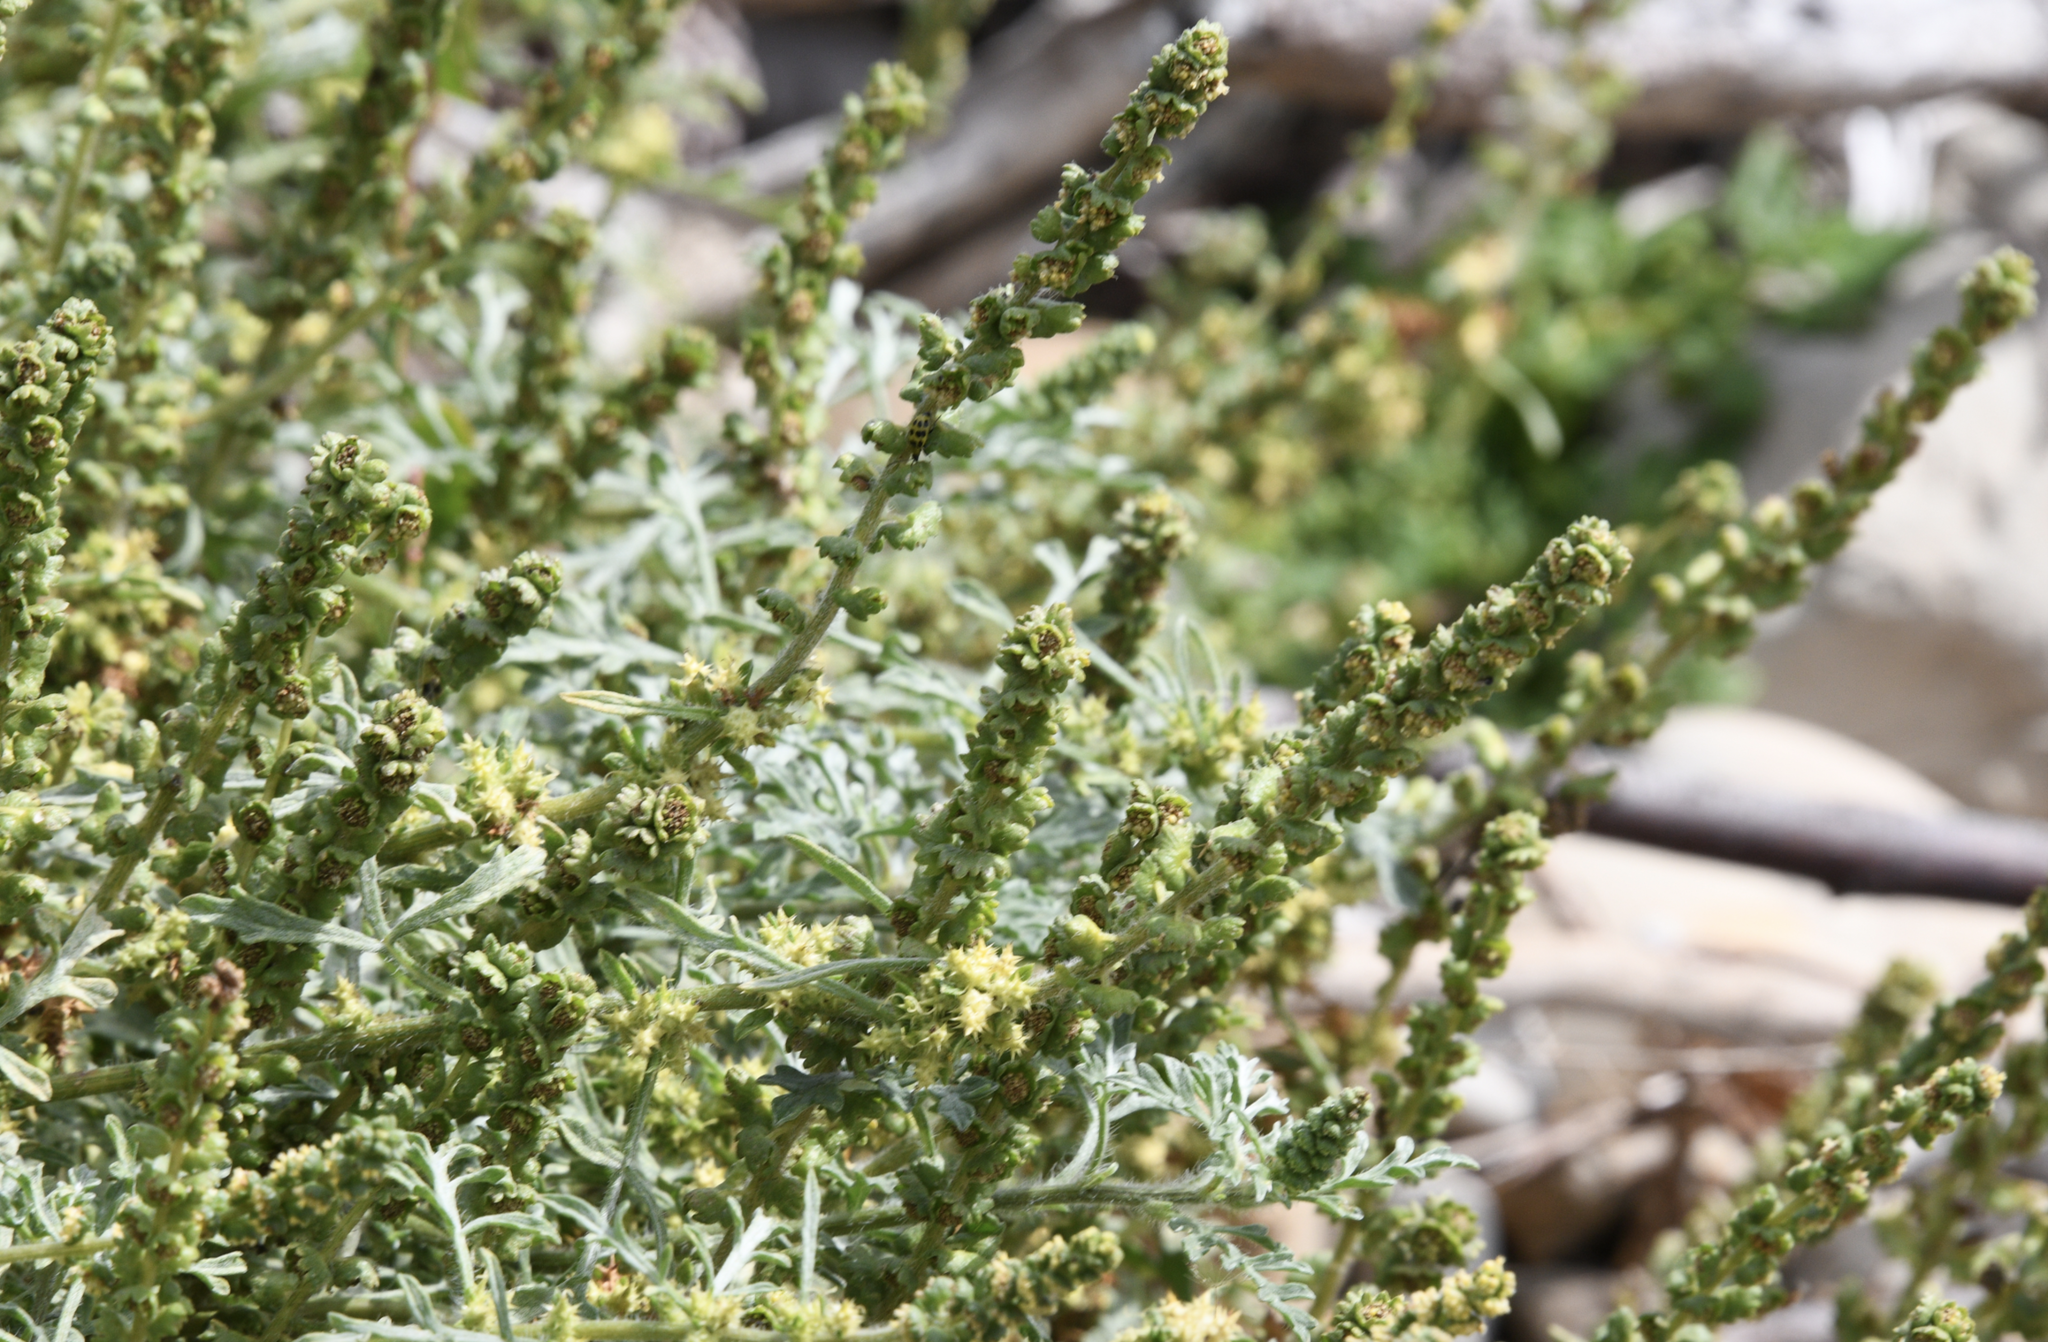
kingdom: Plantae
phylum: Tracheophyta
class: Magnoliopsida
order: Asterales
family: Asteraceae
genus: Ambrosia
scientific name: Ambrosia chamissonis
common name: Beachbur
